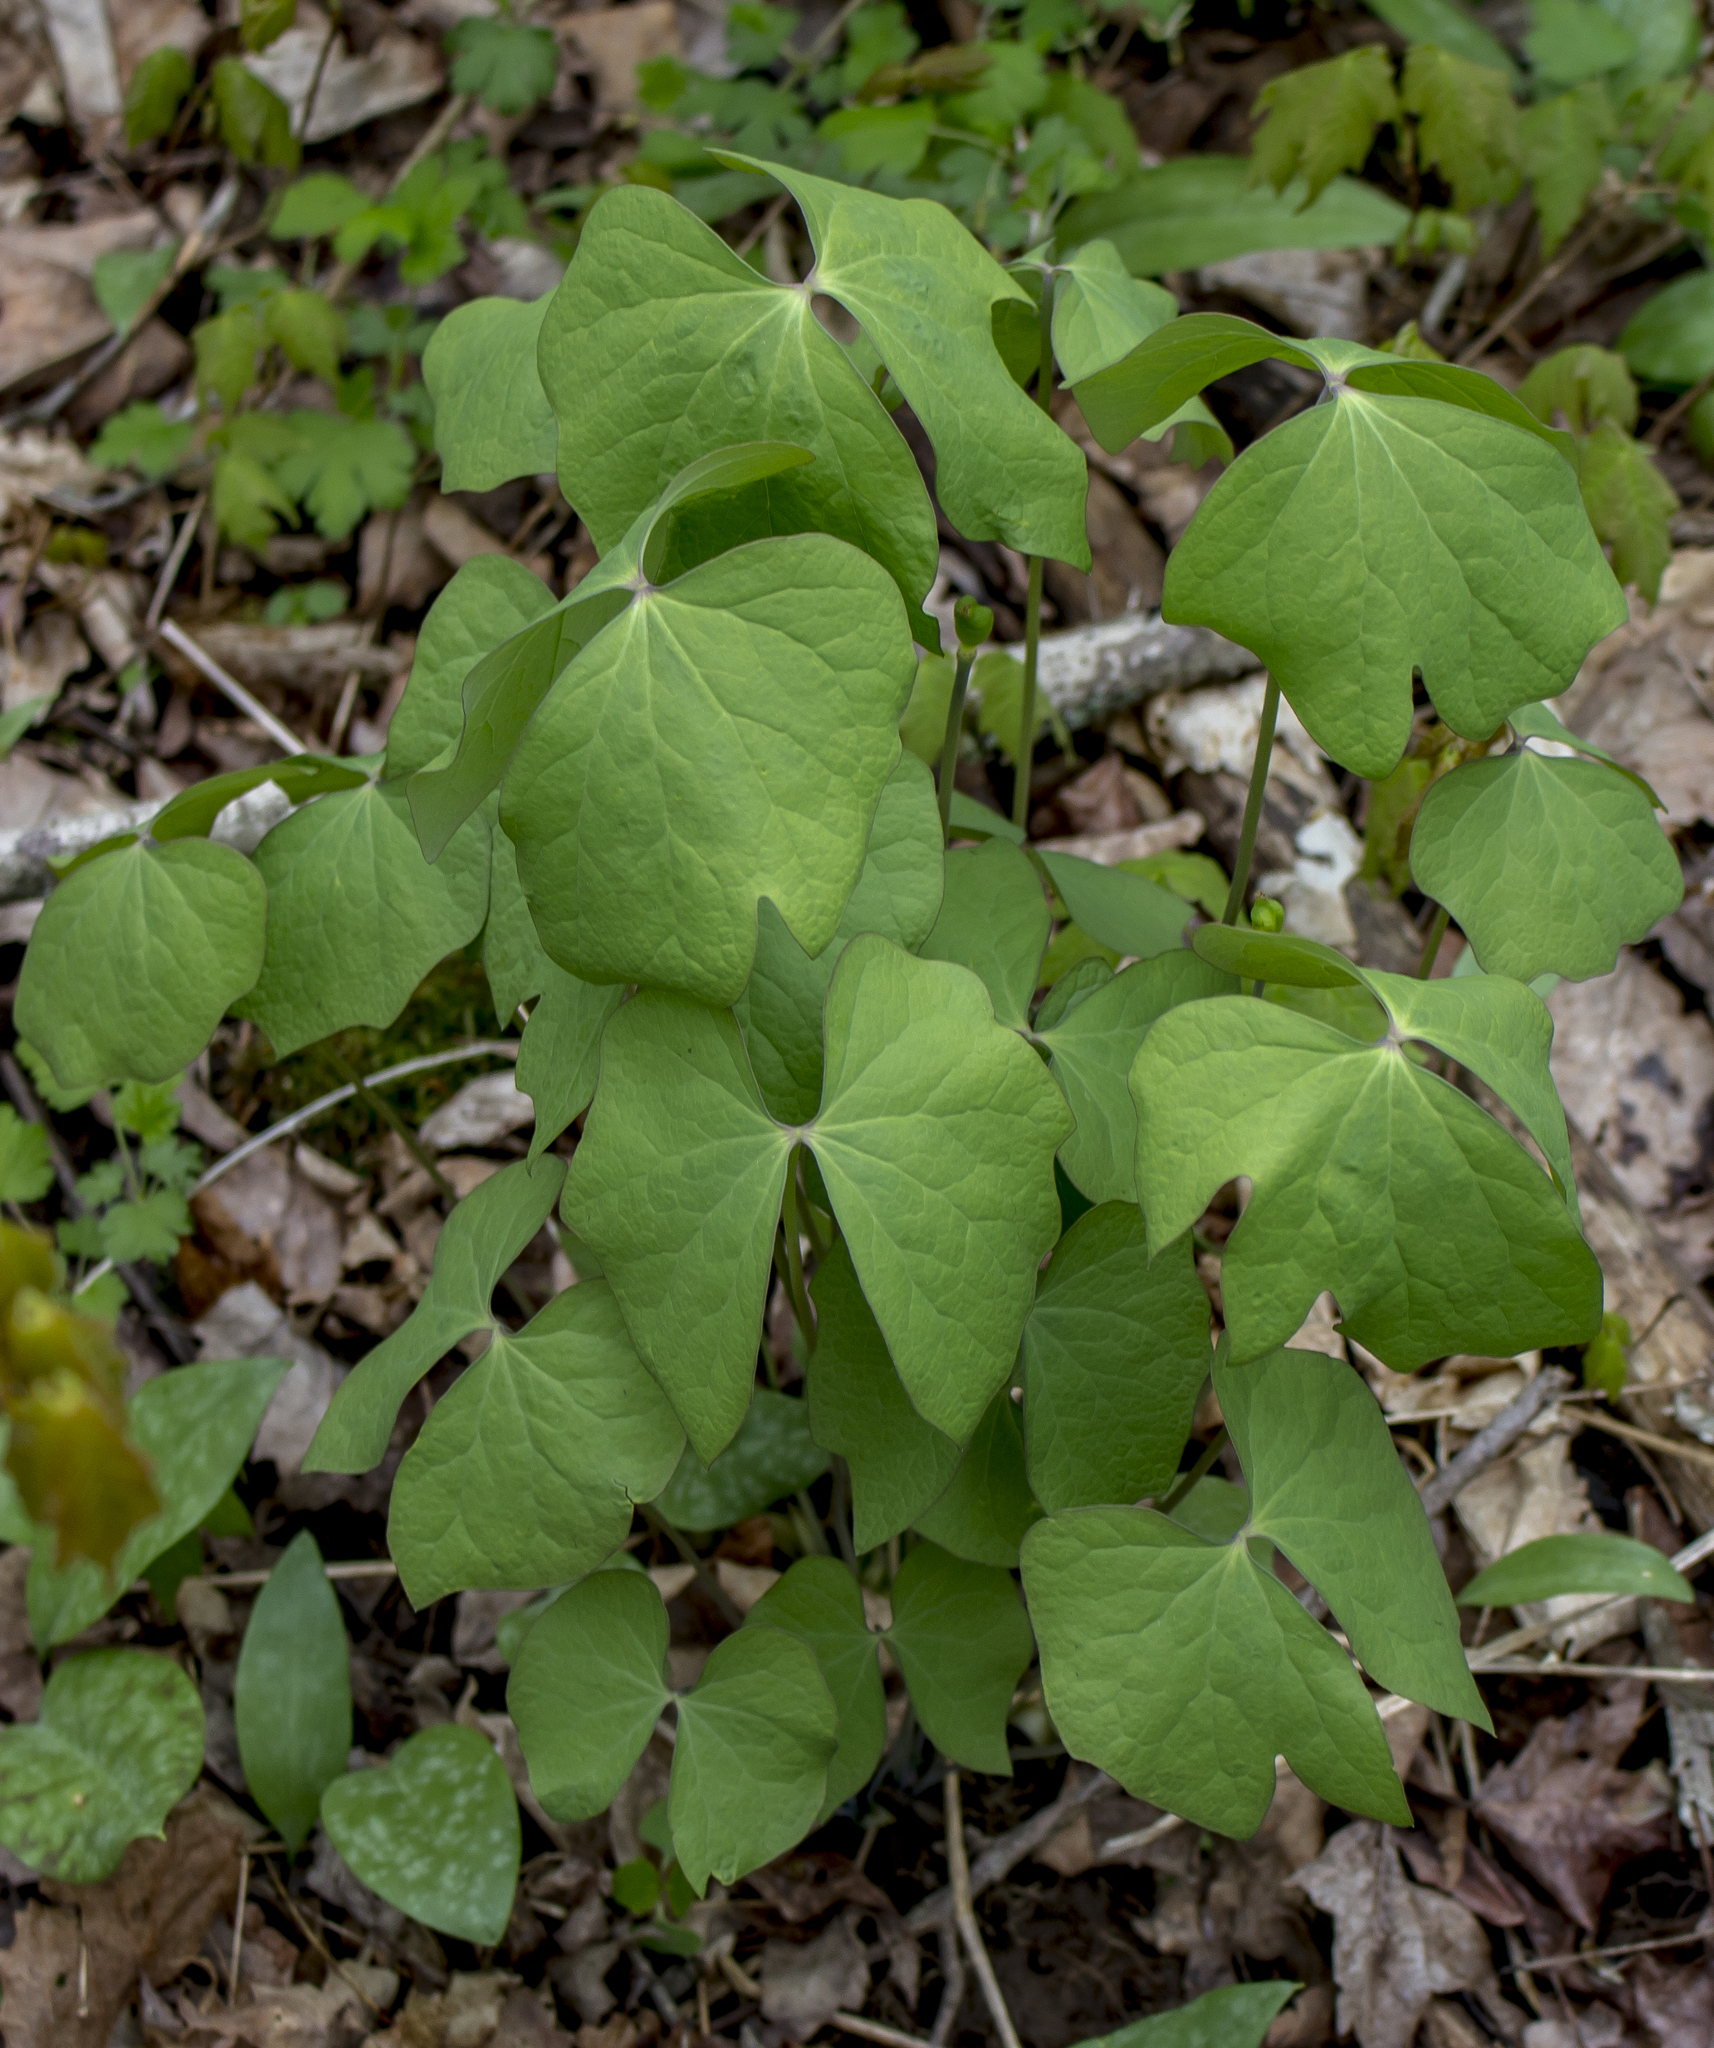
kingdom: Plantae
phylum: Tracheophyta
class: Magnoliopsida
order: Ranunculales
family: Berberidaceae
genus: Jeffersonia
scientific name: Jeffersonia diphylla
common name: Rheumatism-root
